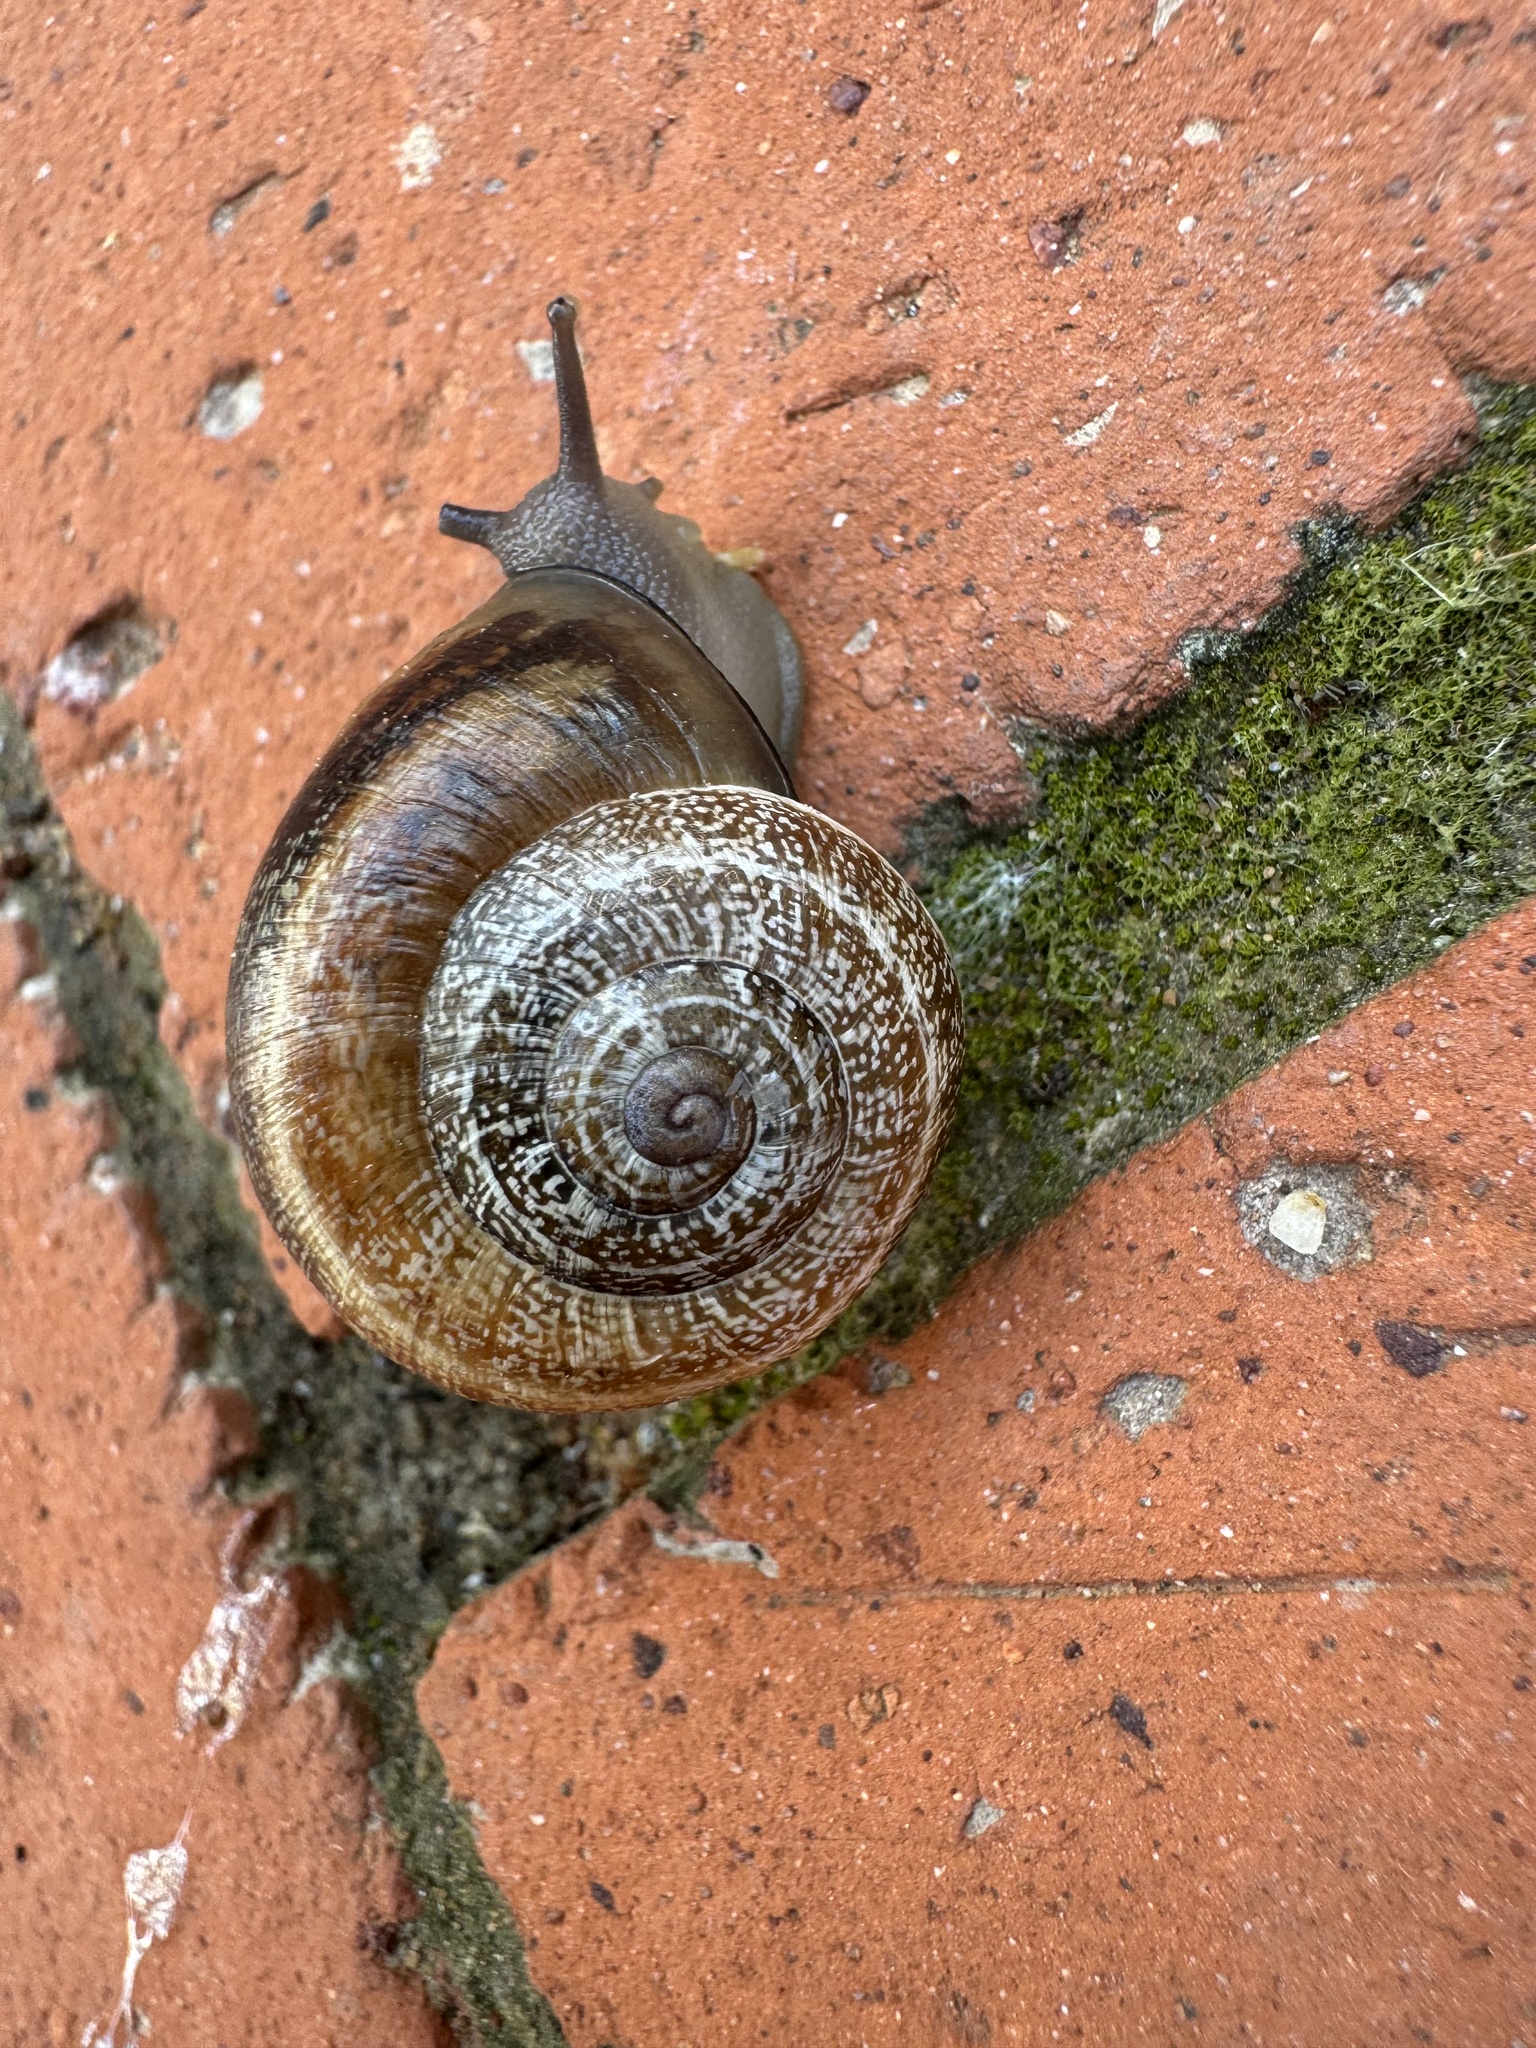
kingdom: Animalia
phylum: Mollusca
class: Gastropoda
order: Stylommatophora
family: Helicidae
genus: Otala
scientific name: Otala lactea
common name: Milk snail
